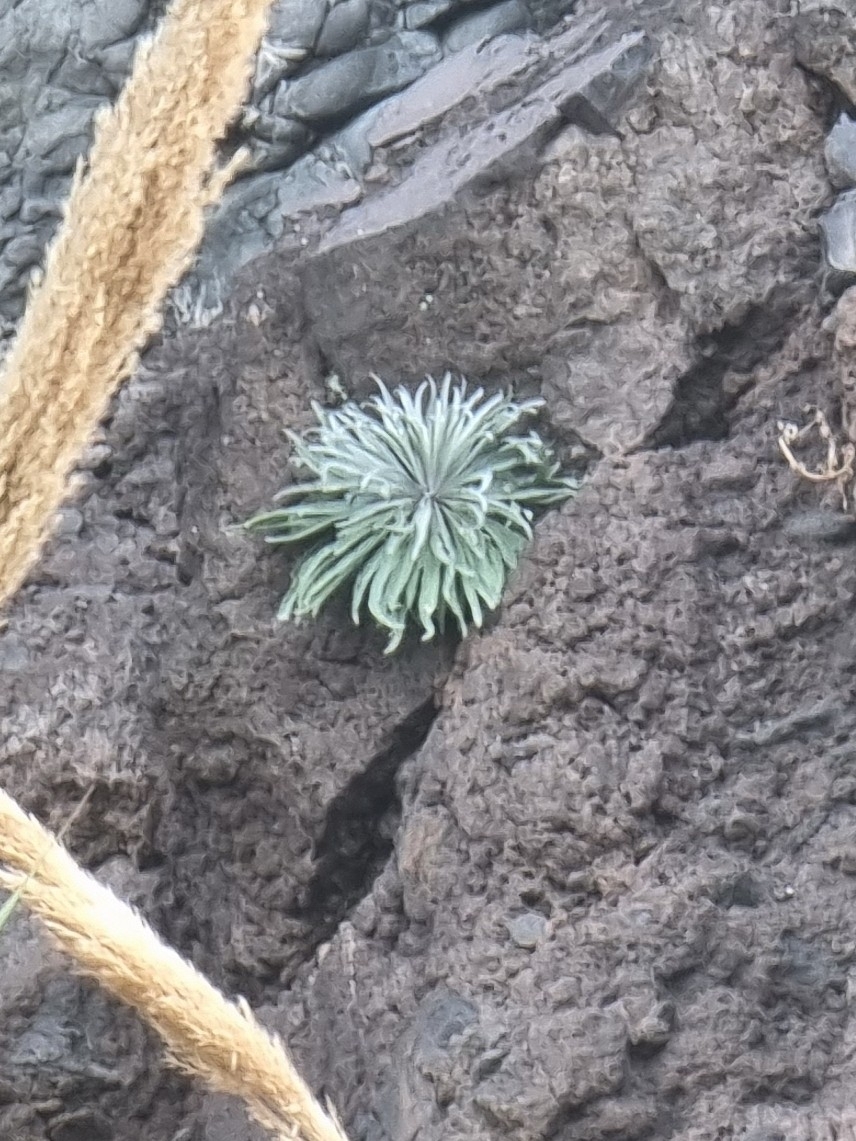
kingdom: Plantae
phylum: Tracheophyta
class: Magnoliopsida
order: Brassicales
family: Brassicaceae
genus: Matthiola
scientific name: Matthiola maderensis
